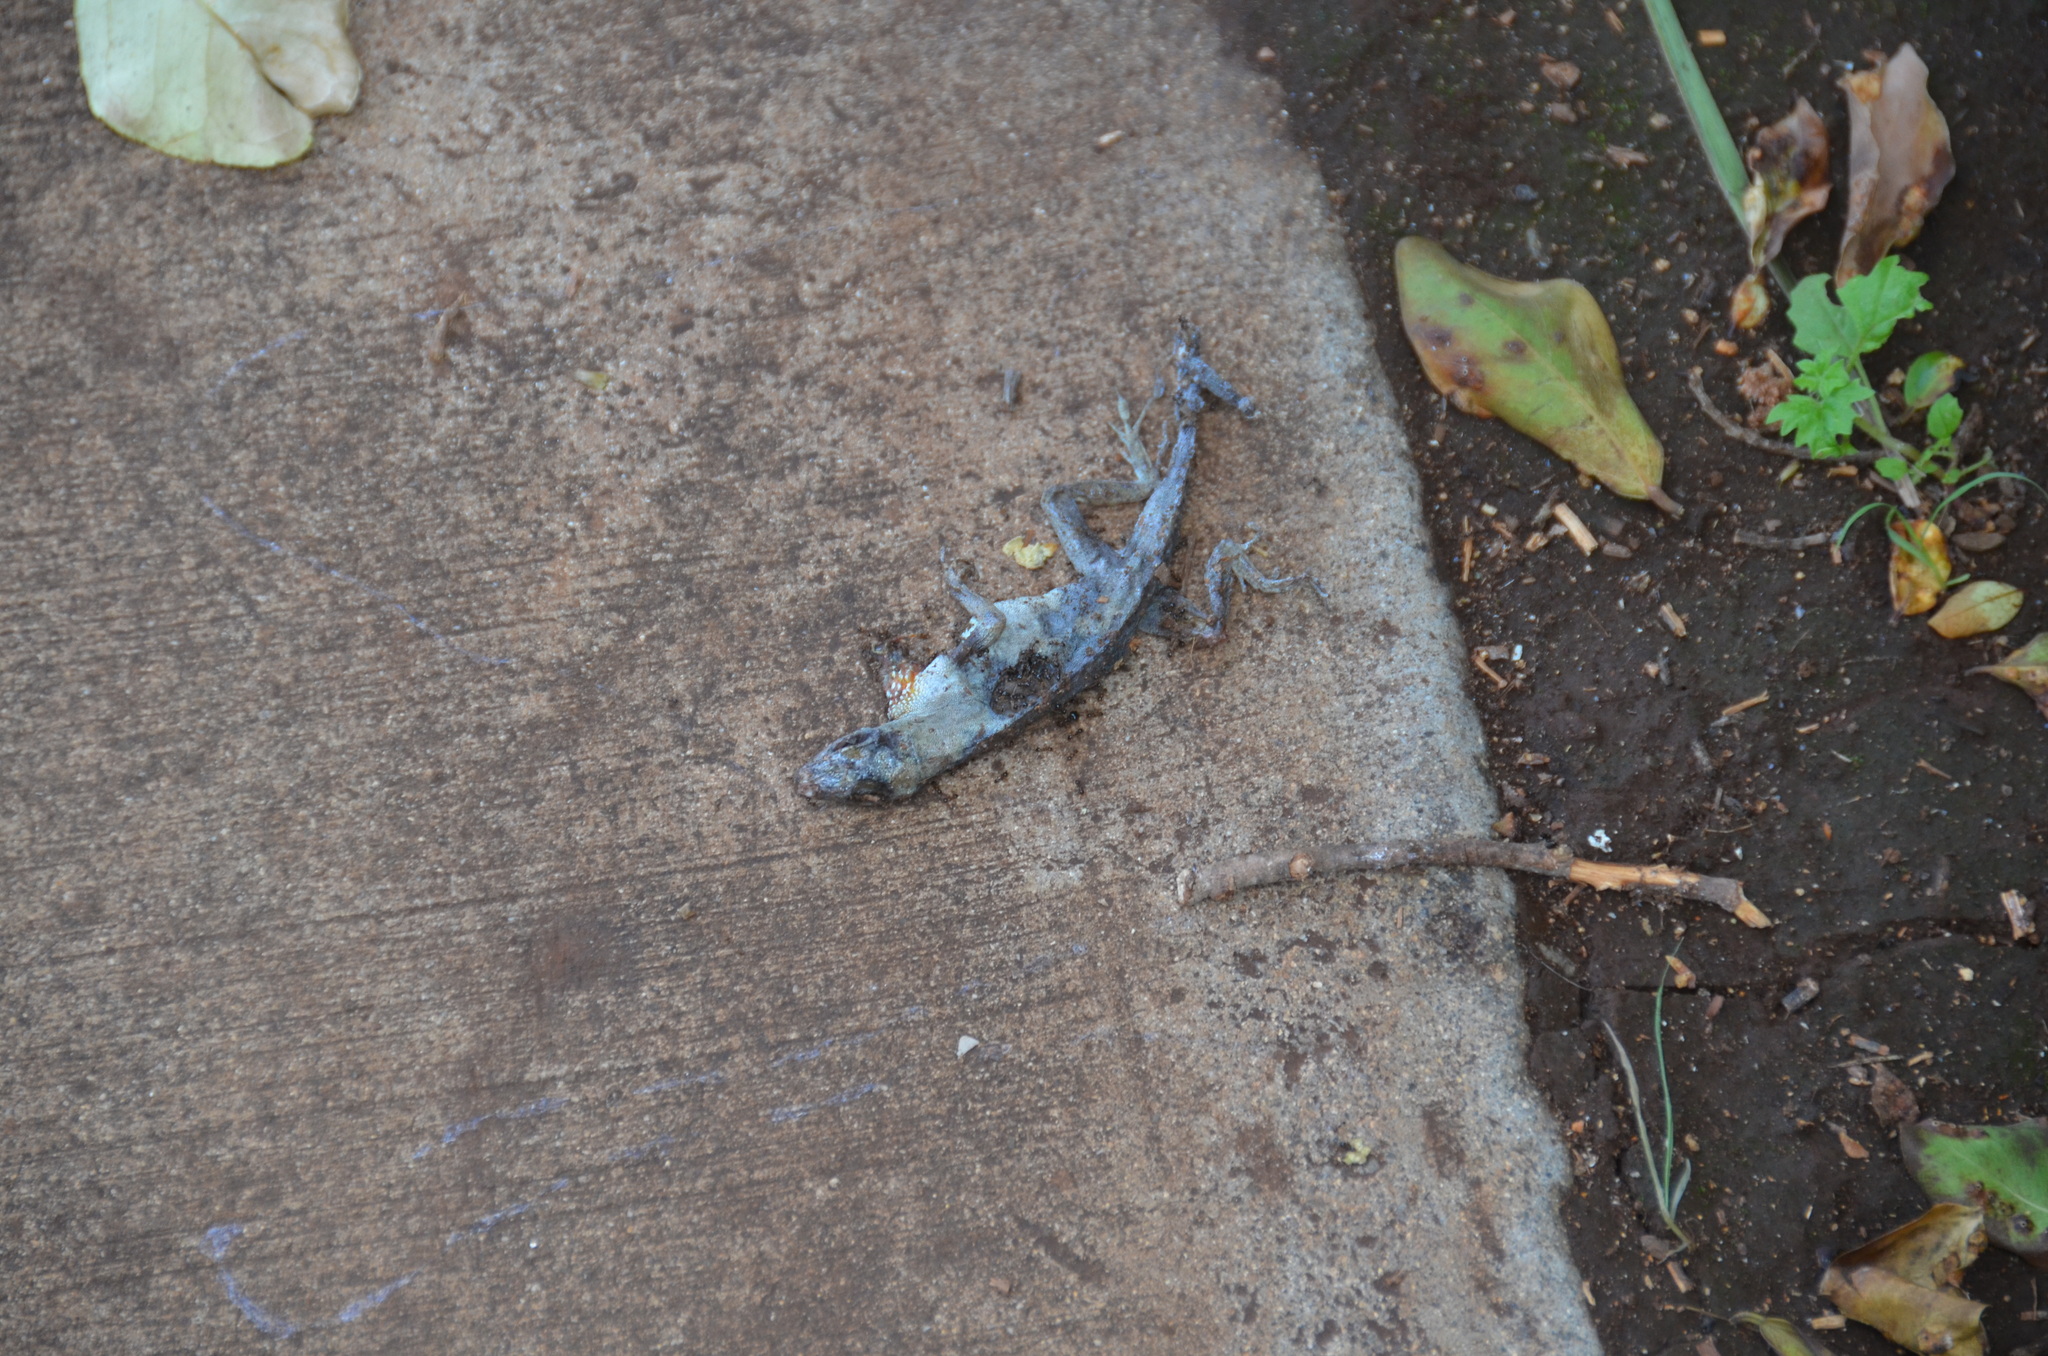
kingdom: Animalia
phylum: Chordata
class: Squamata
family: Dactyloidae
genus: Anolis
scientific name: Anolis sagrei
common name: Brown anole
